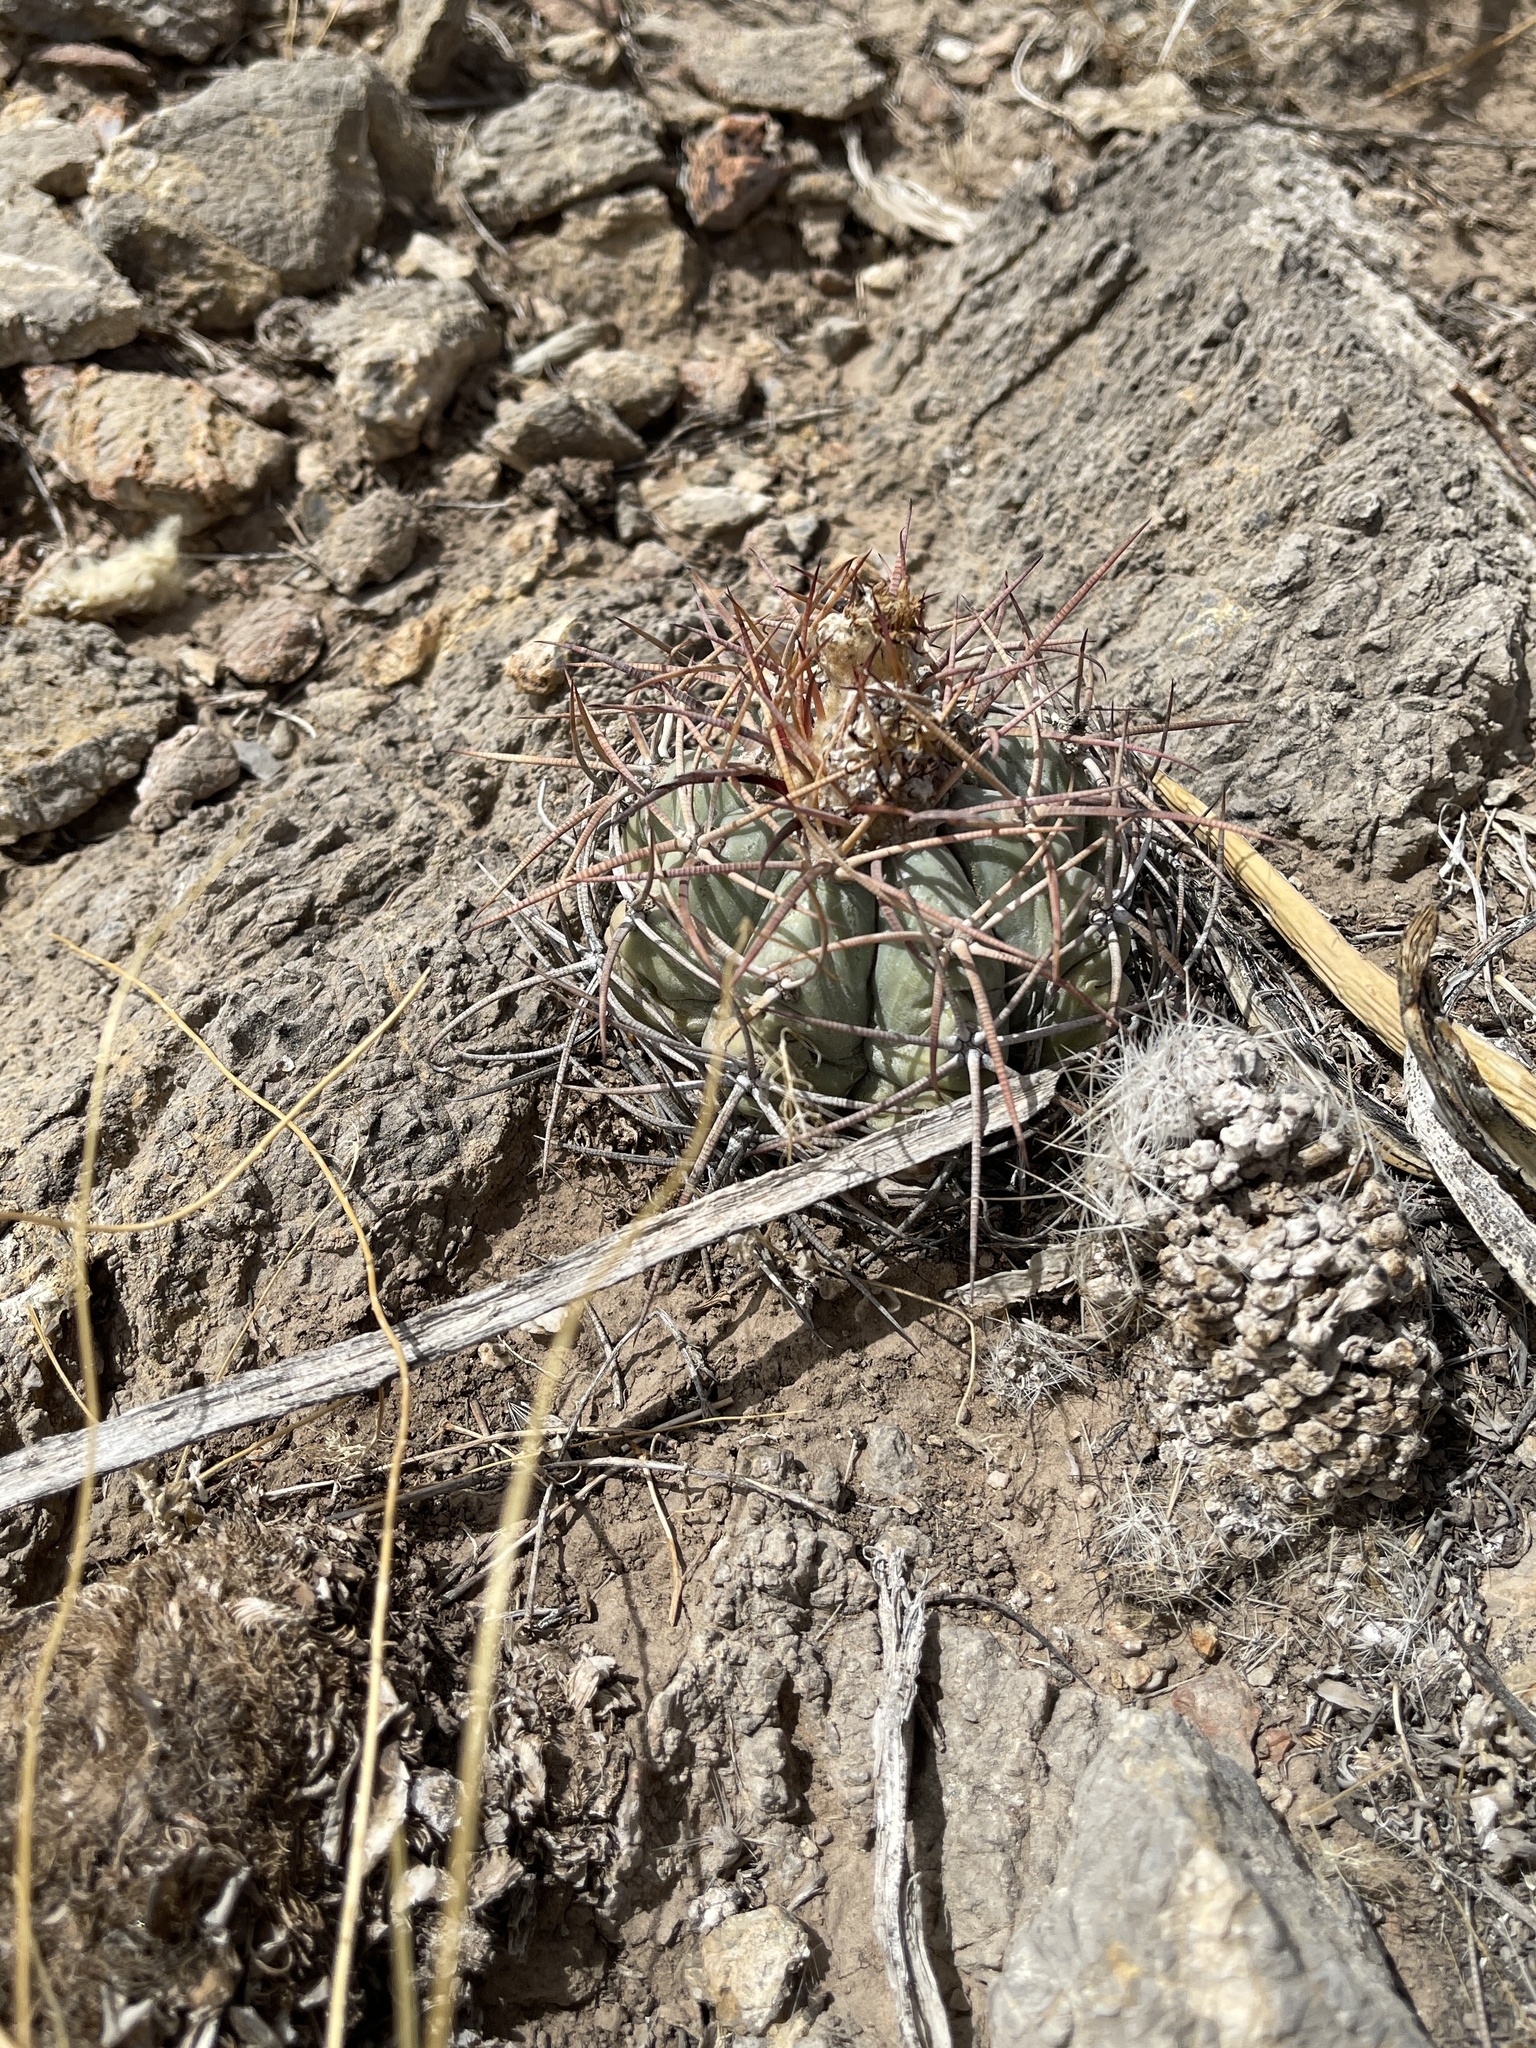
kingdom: Plantae
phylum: Tracheophyta
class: Magnoliopsida
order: Caryophyllales
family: Cactaceae
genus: Echinocactus
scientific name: Echinocactus horizonthalonius
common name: Devilshead
